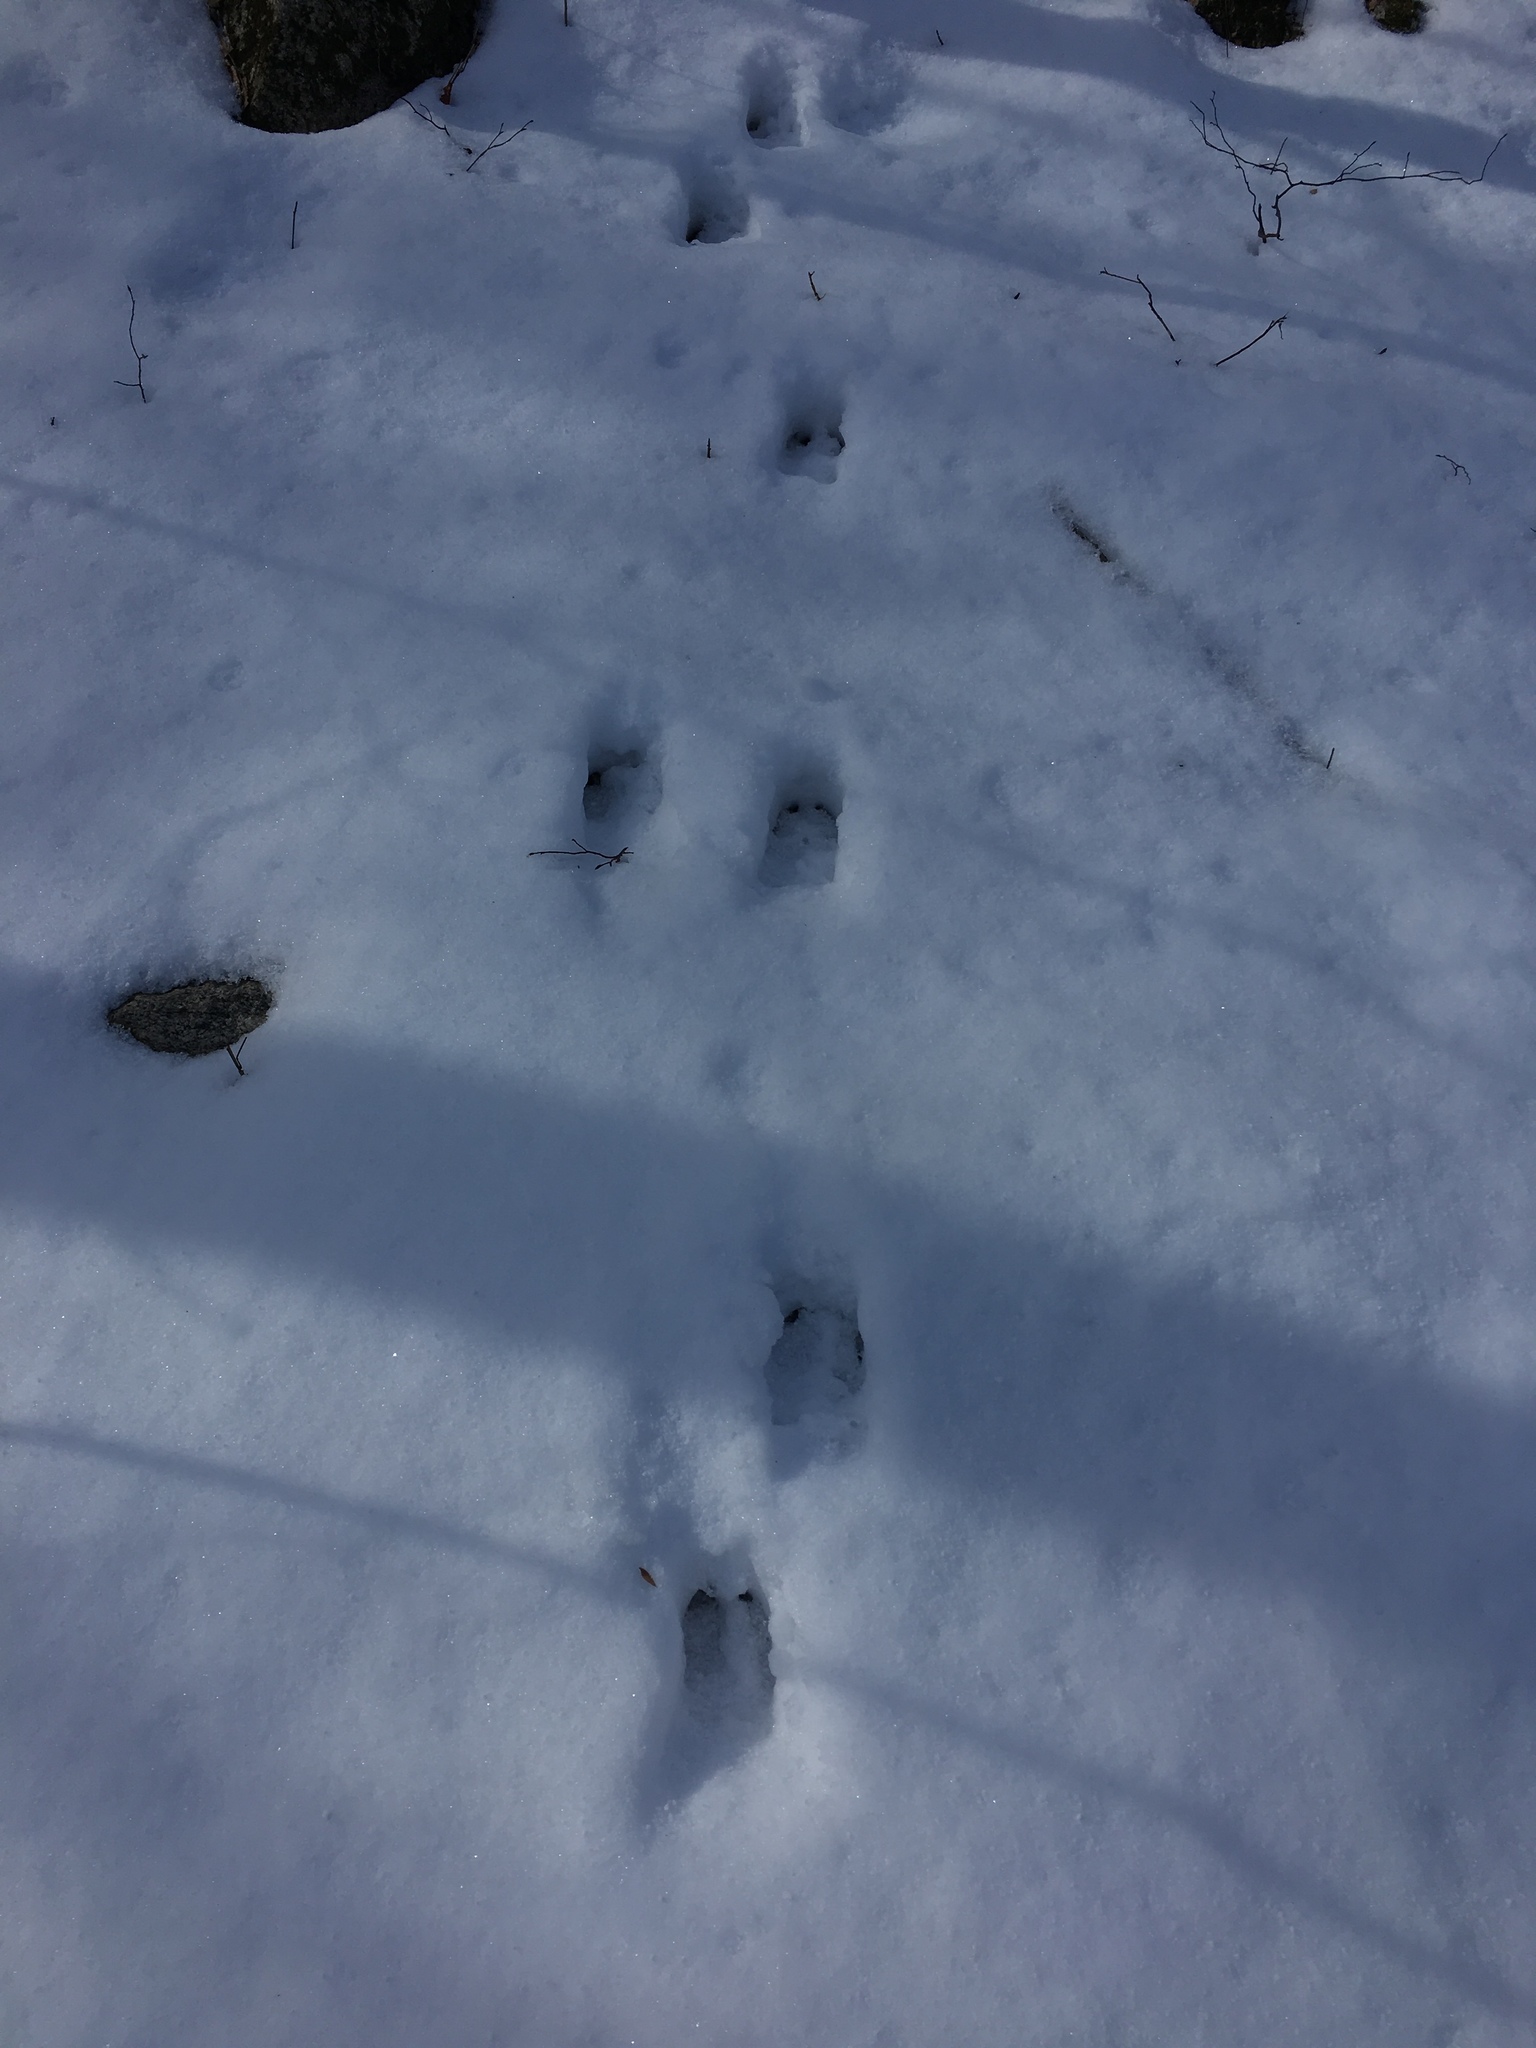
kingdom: Animalia
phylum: Chordata
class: Mammalia
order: Artiodactyla
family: Cervidae
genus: Odocoileus
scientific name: Odocoileus virginianus
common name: White-tailed deer
